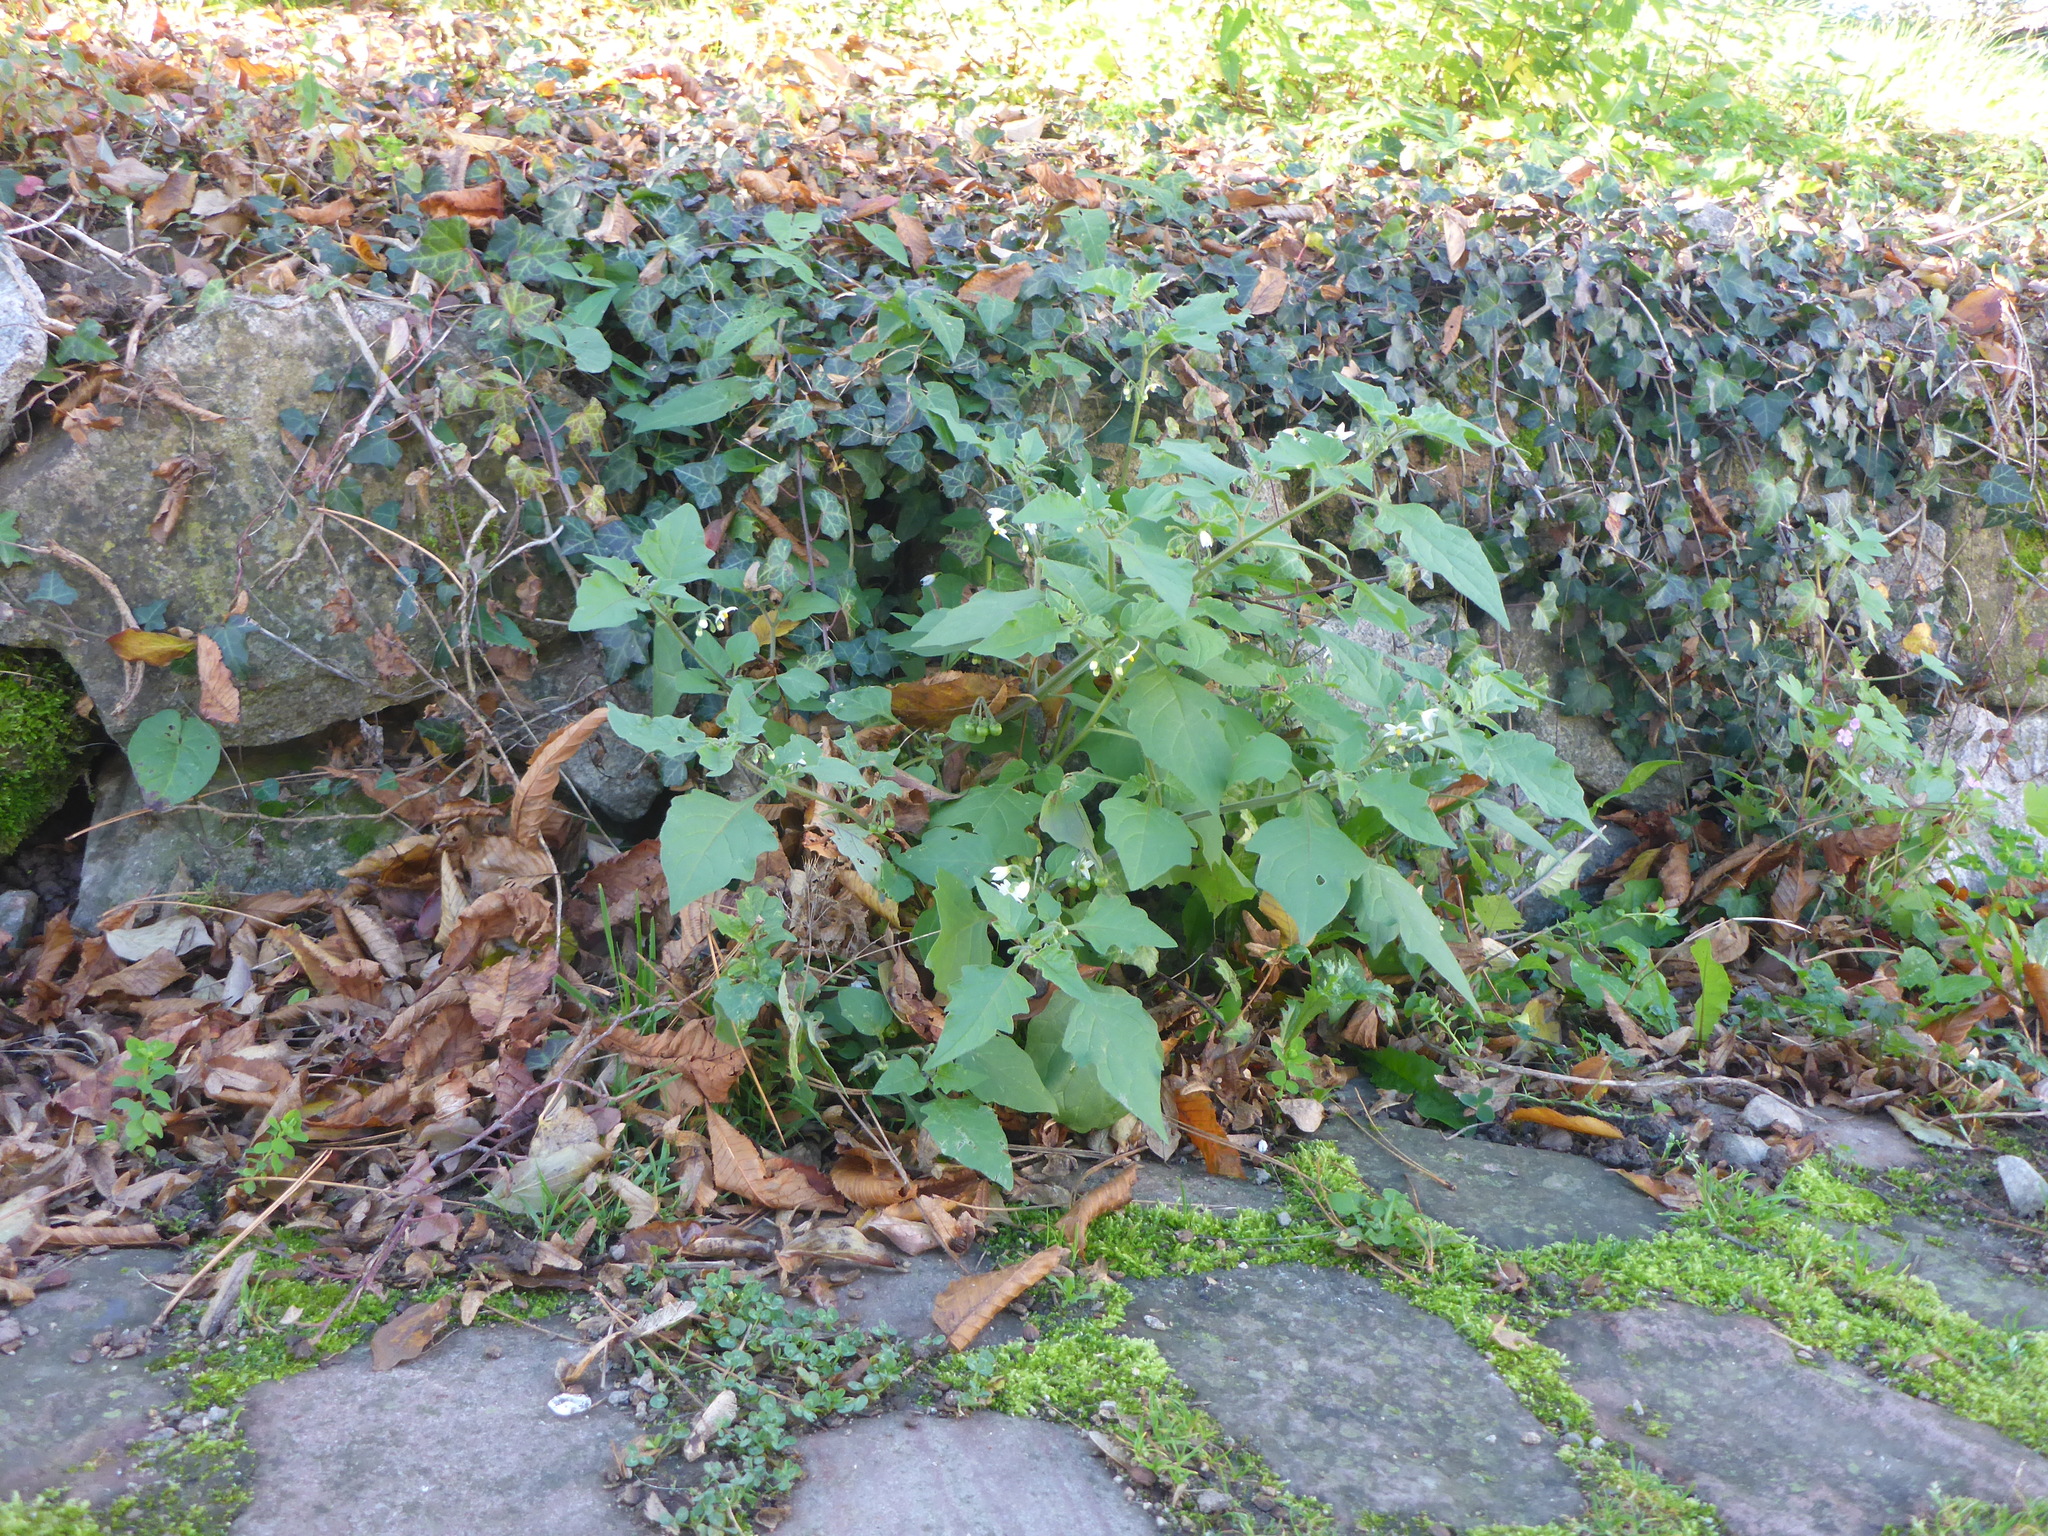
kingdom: Plantae
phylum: Tracheophyta
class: Magnoliopsida
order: Solanales
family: Solanaceae
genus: Solanum
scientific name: Solanum nigrum
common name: Black nightshade
